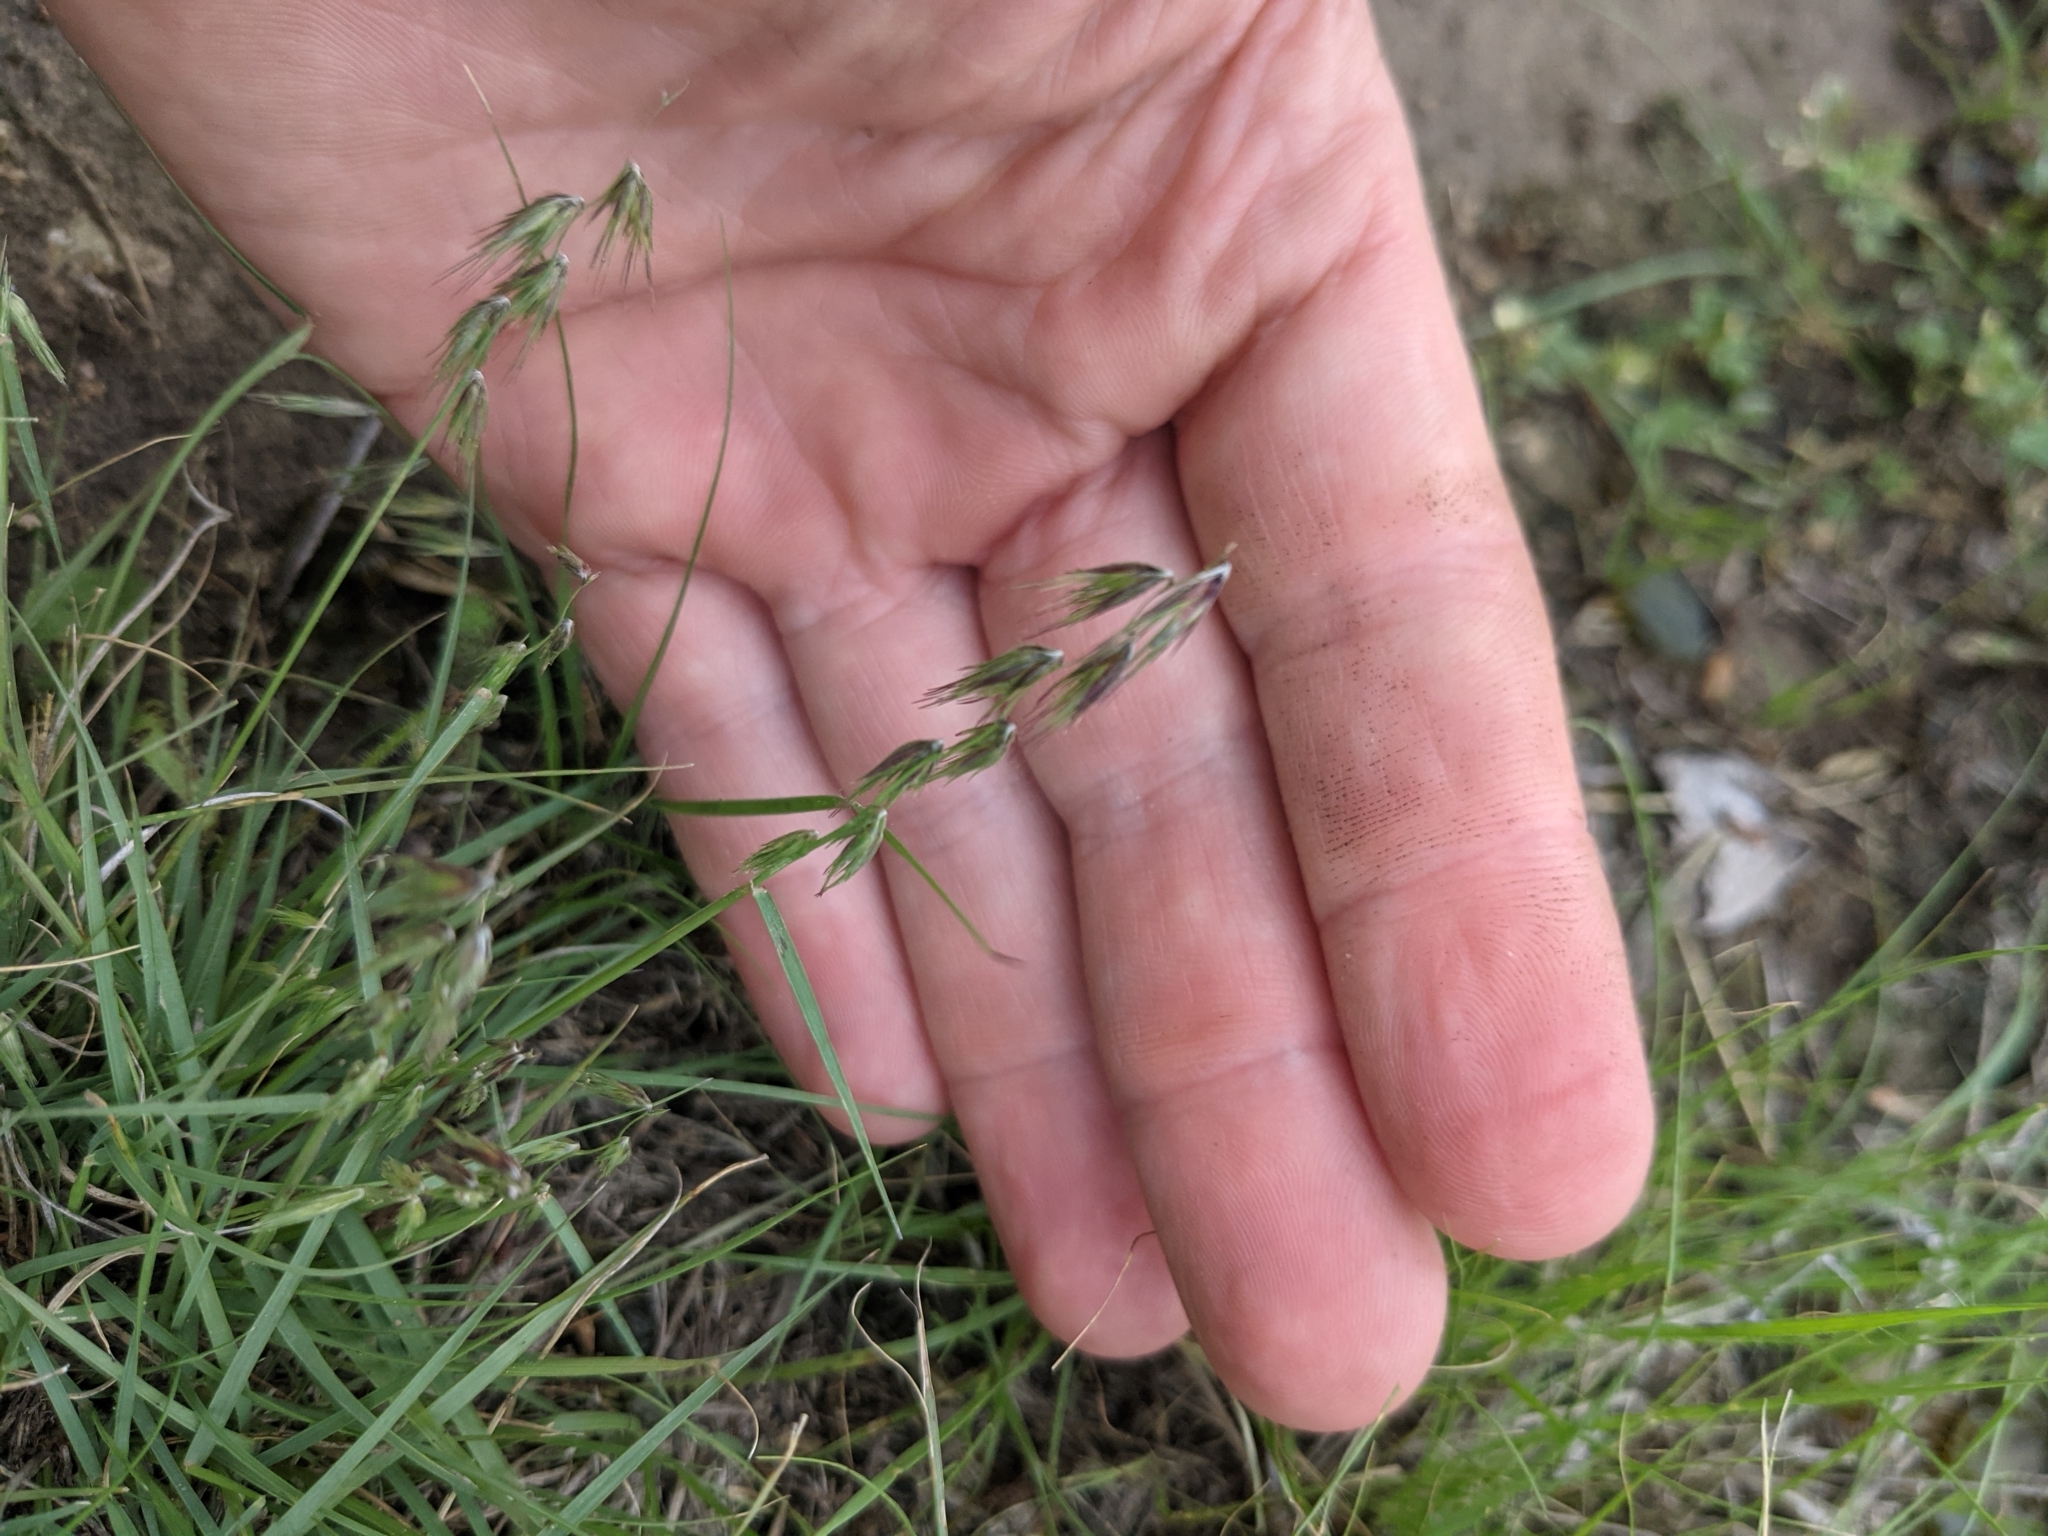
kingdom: Plantae
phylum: Tracheophyta
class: Liliopsida
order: Poales
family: Poaceae
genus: Bouteloua
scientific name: Bouteloua rigidiseta
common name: Texas grama
